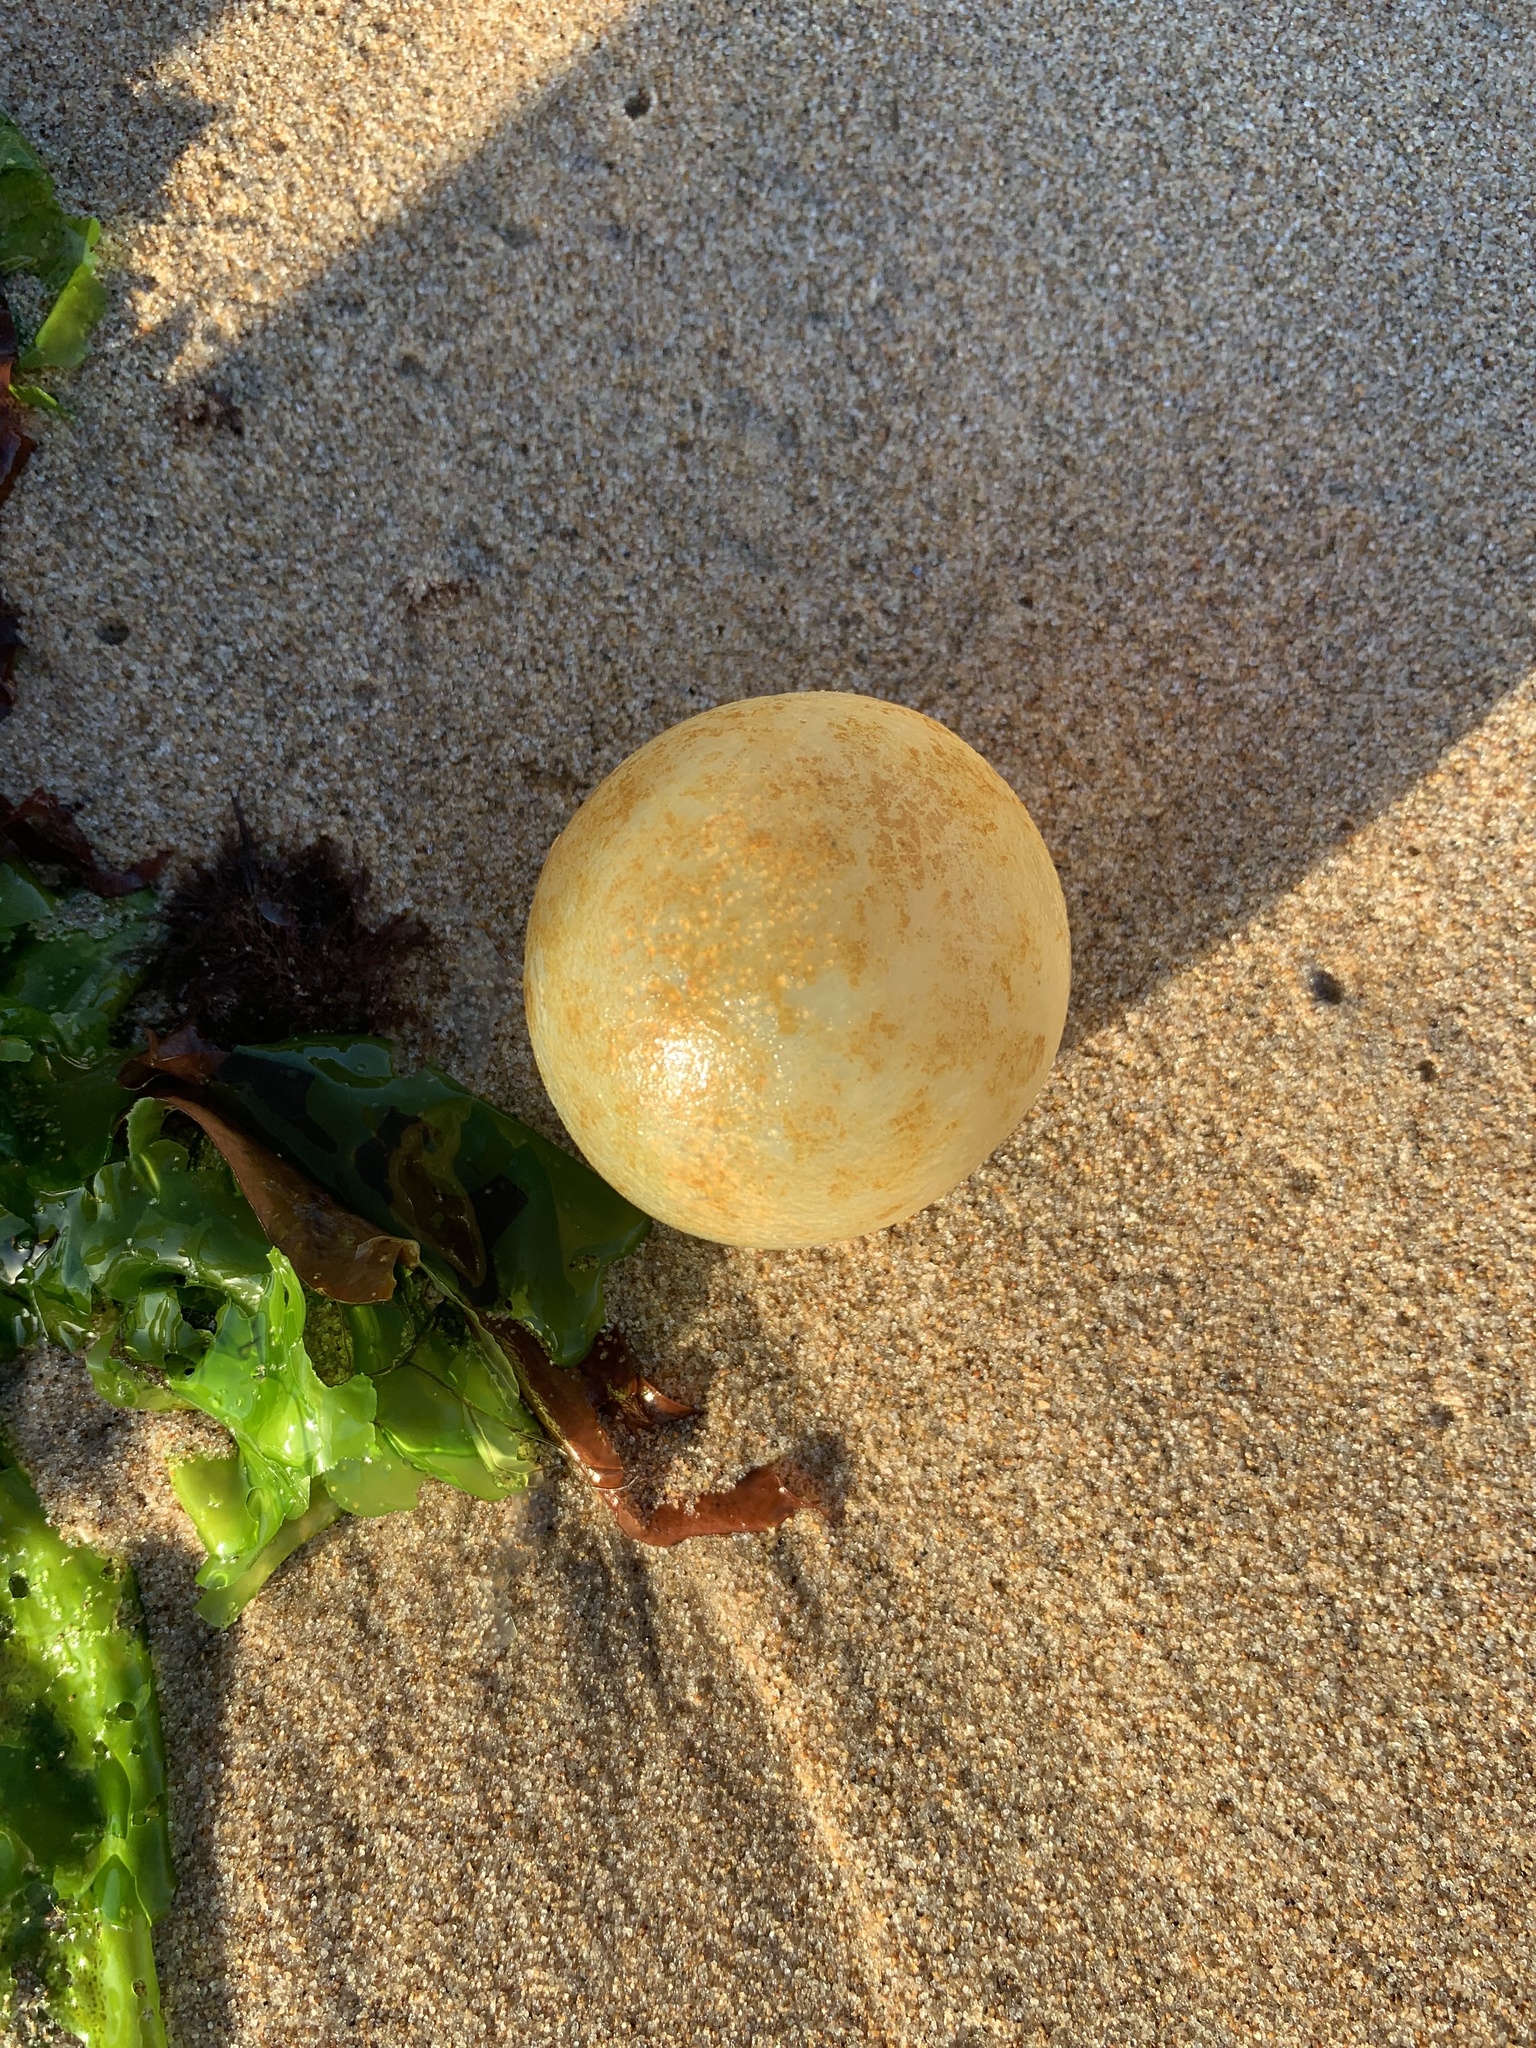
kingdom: Animalia
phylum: Mollusca
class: Gastropoda
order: Neogastropoda
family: Volutidae
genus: Pachycymbiola
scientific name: Pachycymbiola brasiliana
